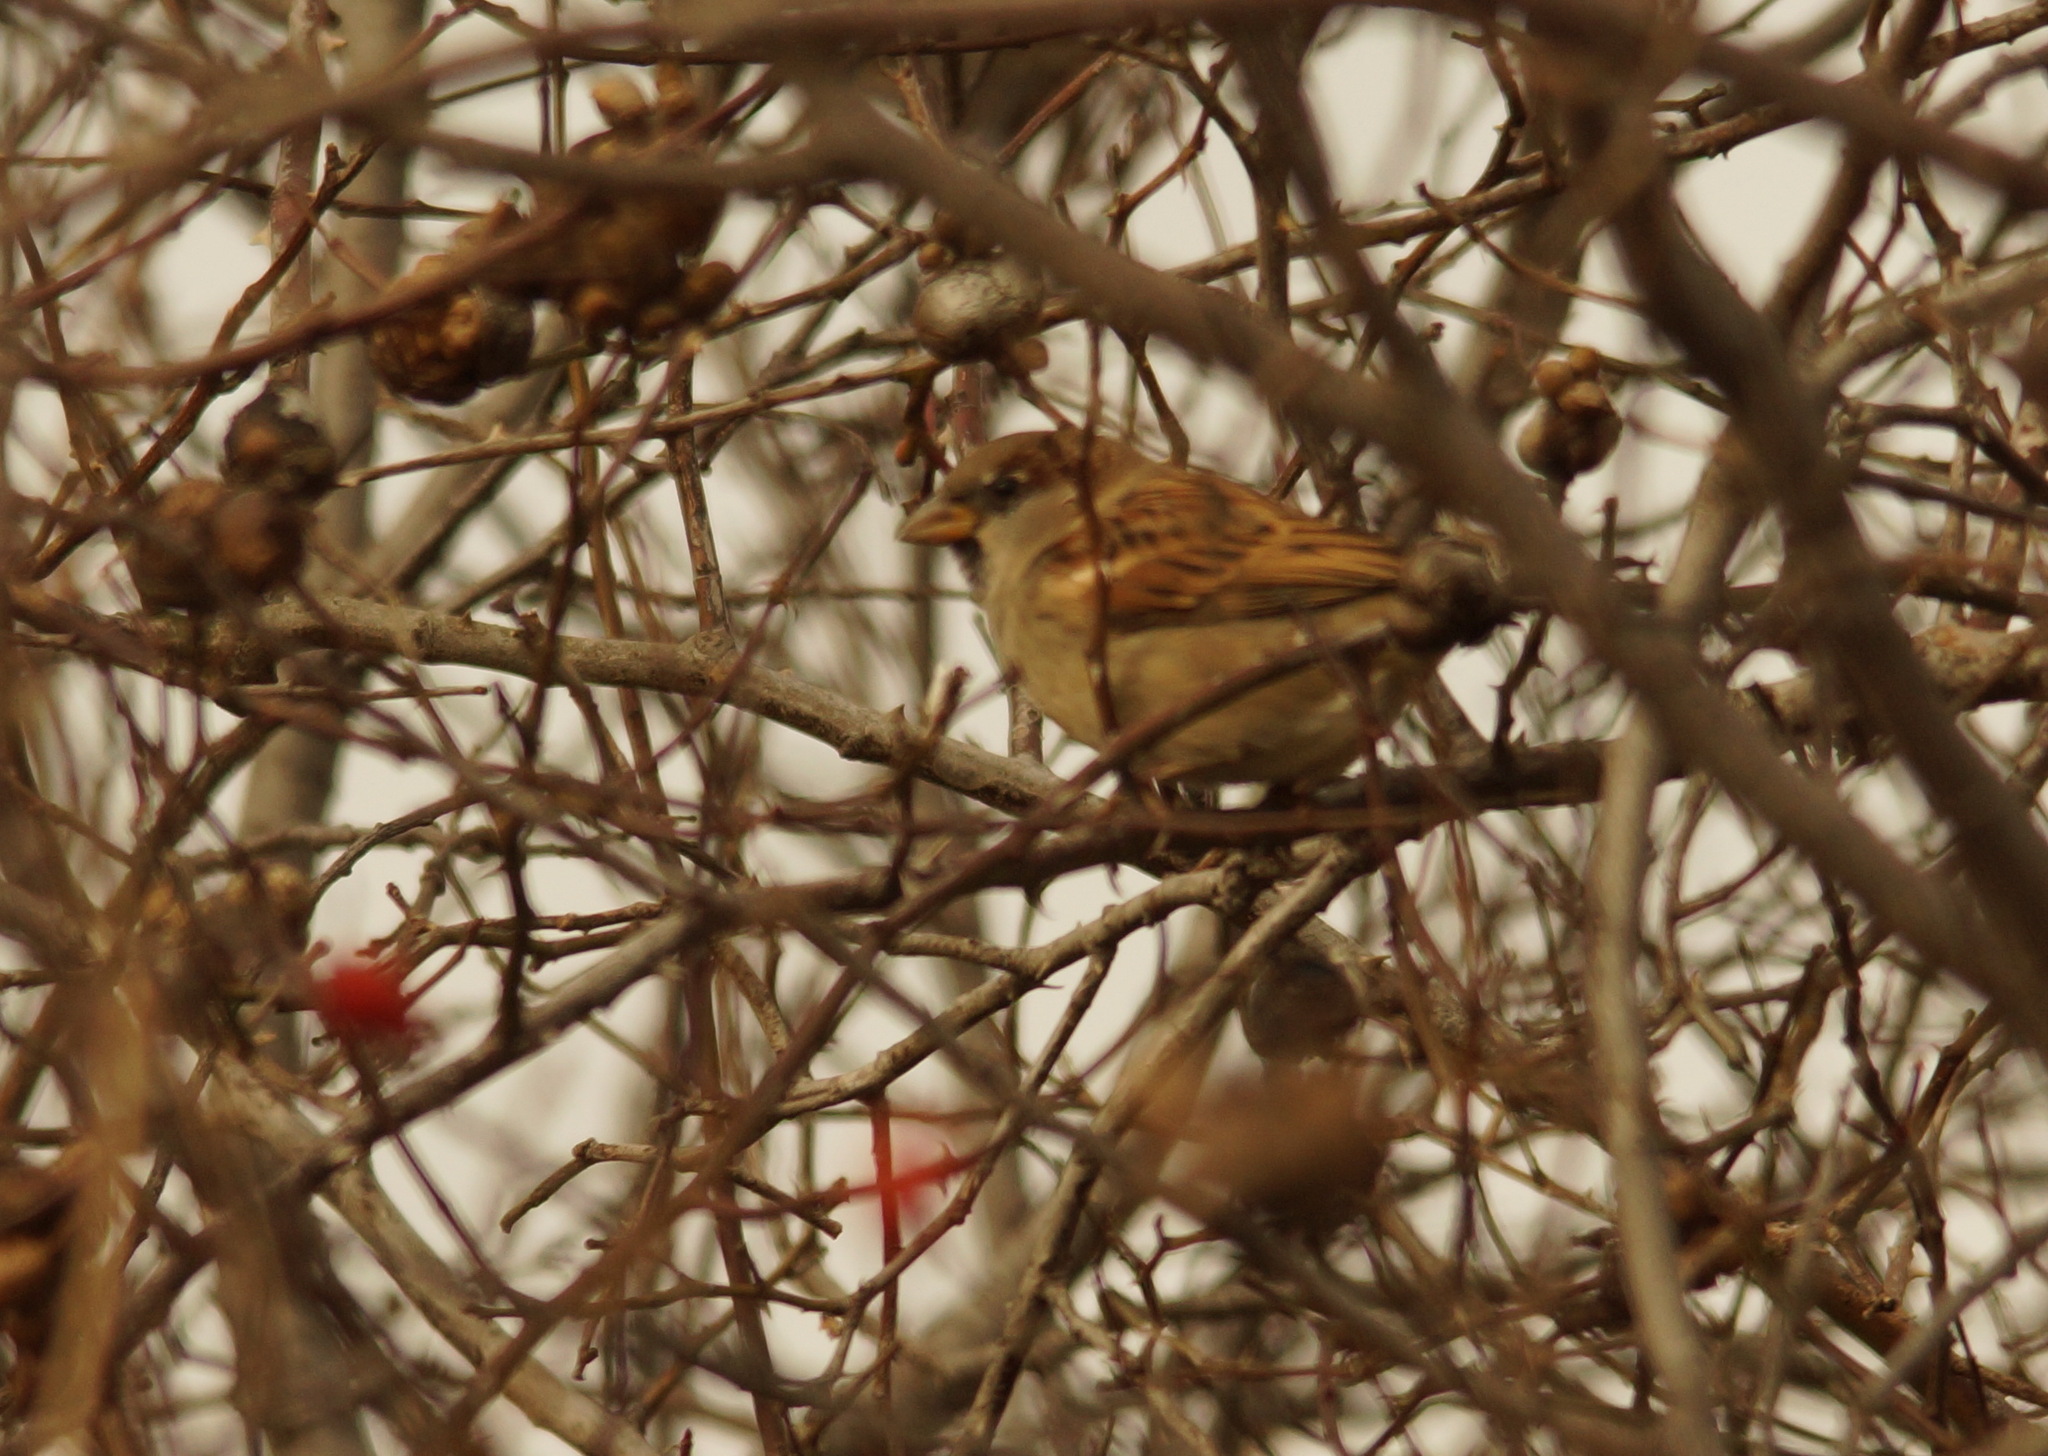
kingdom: Animalia
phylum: Chordata
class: Aves
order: Passeriformes
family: Passeridae
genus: Passer
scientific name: Passer domesticus
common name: House sparrow
